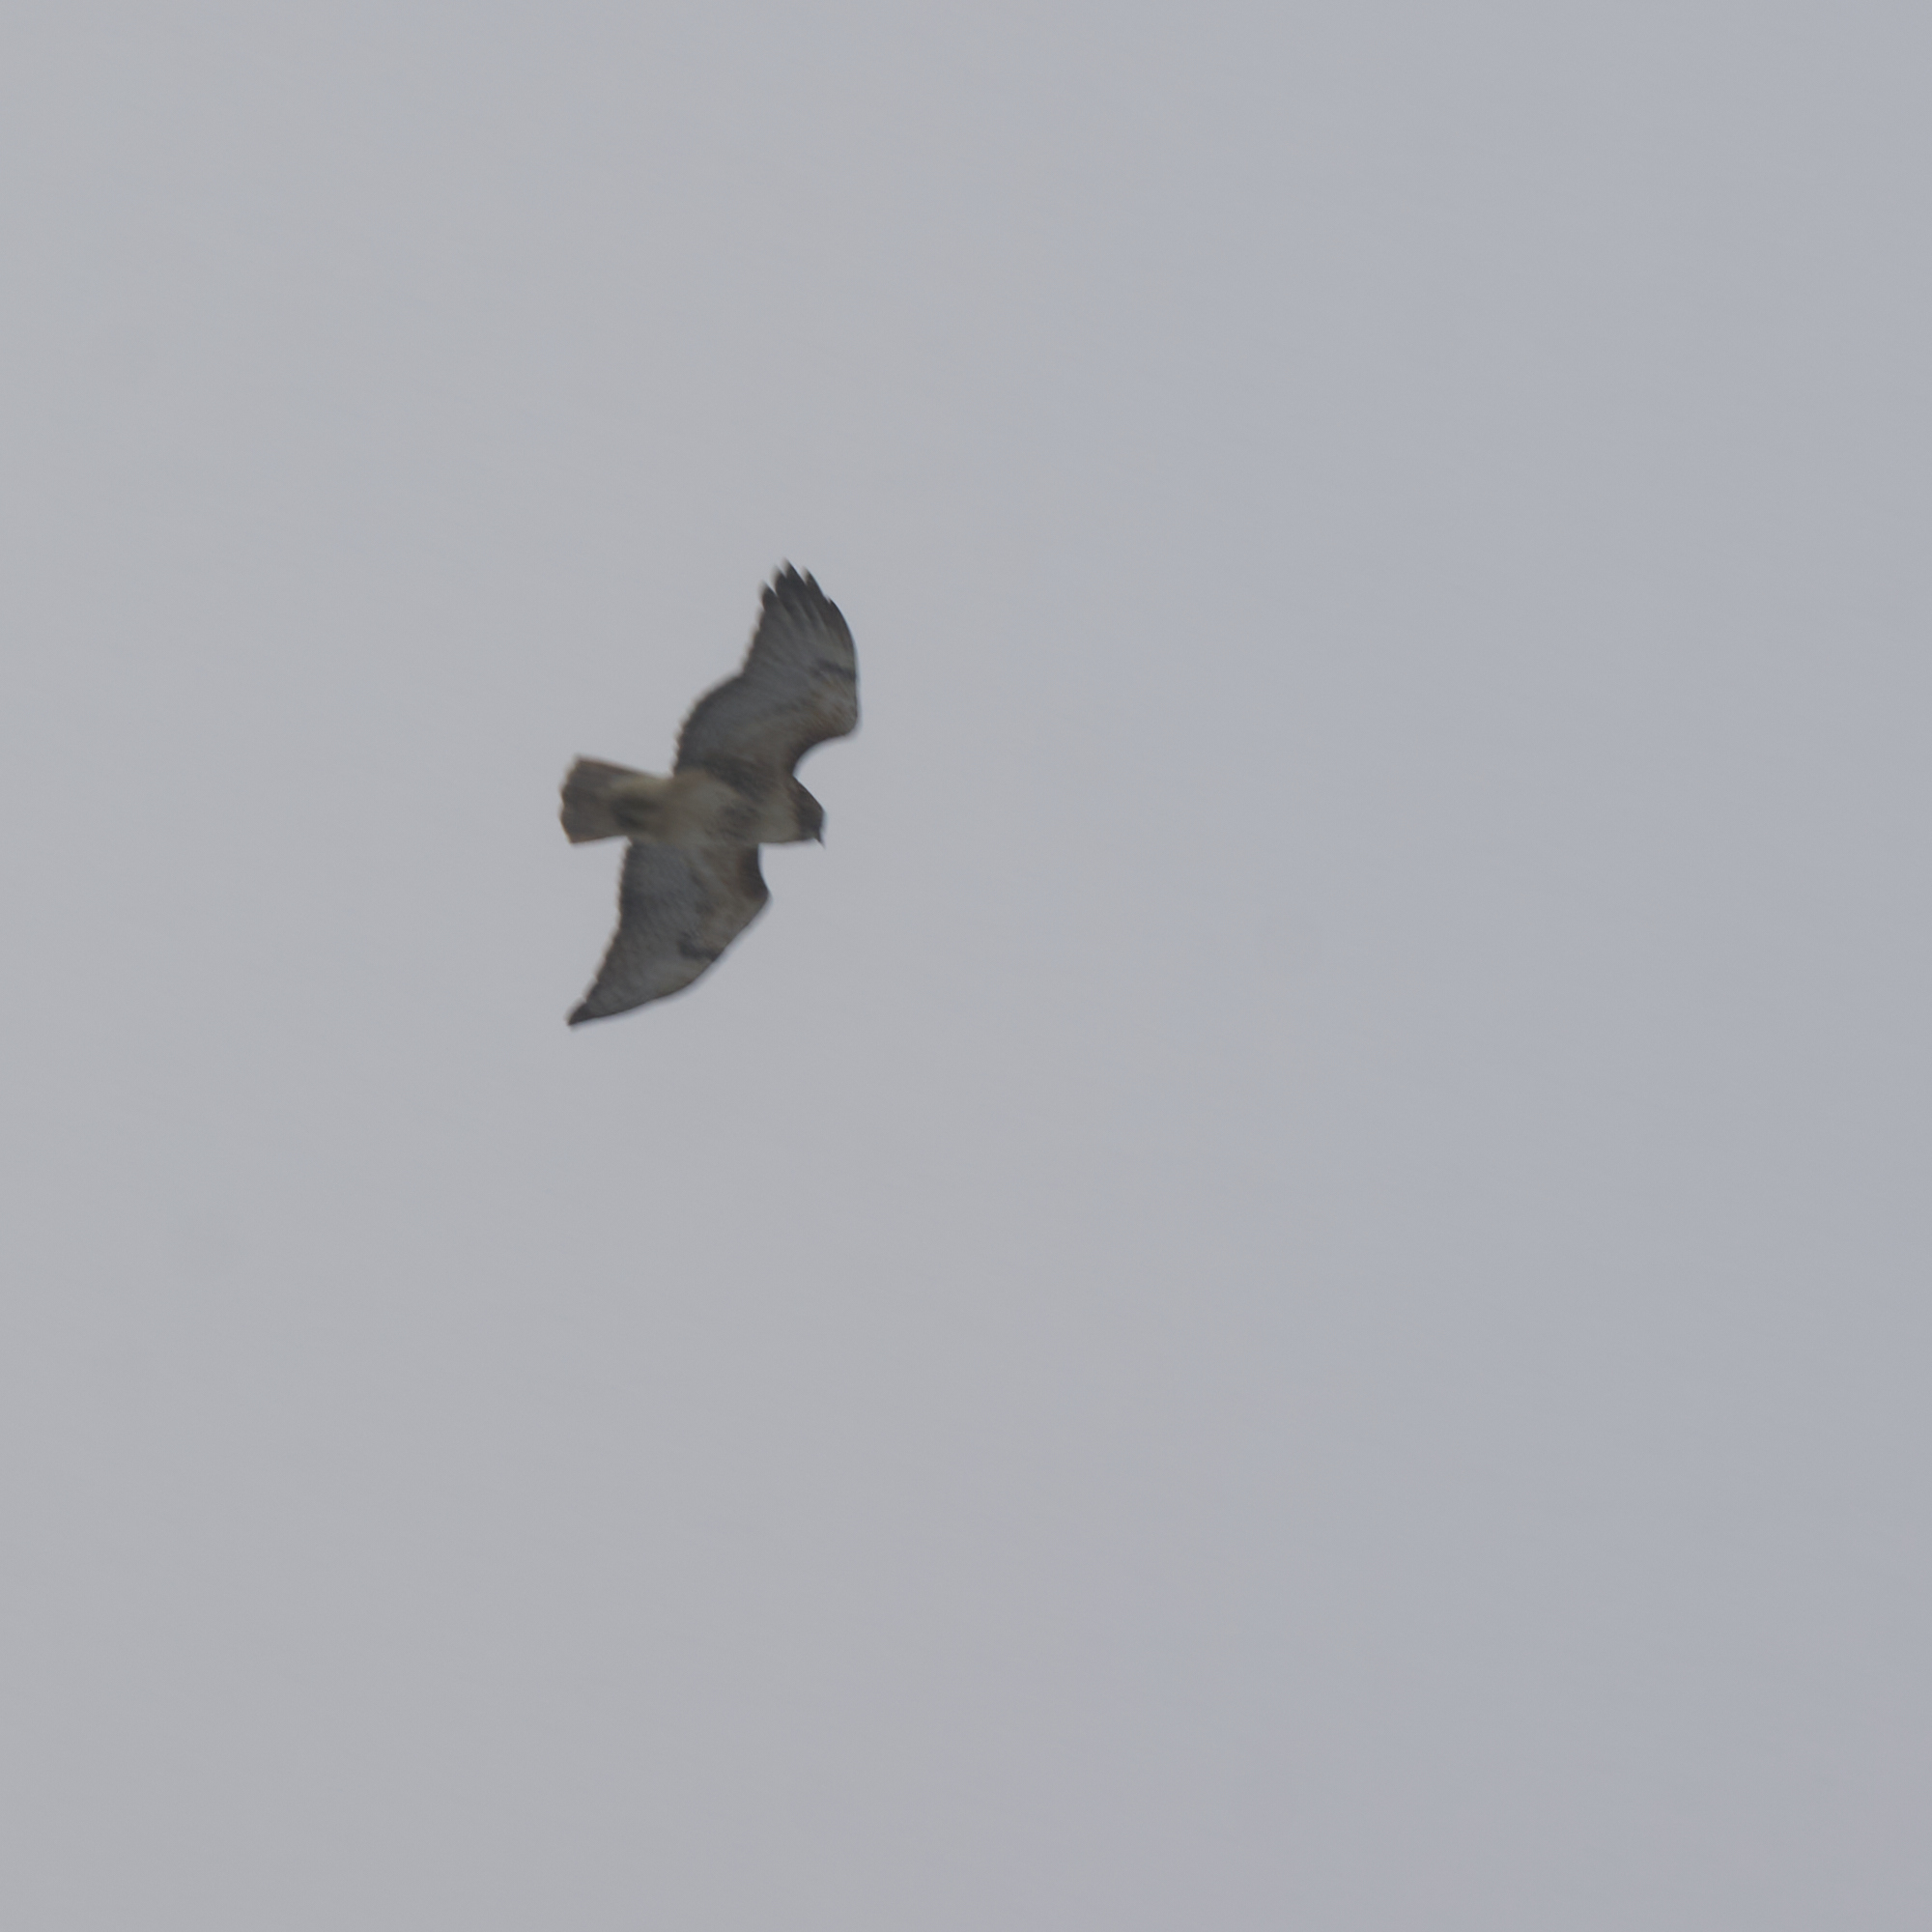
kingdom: Animalia
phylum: Chordata
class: Aves
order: Accipitriformes
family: Accipitridae
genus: Buteo
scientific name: Buteo jamaicensis
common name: Red-tailed hawk
